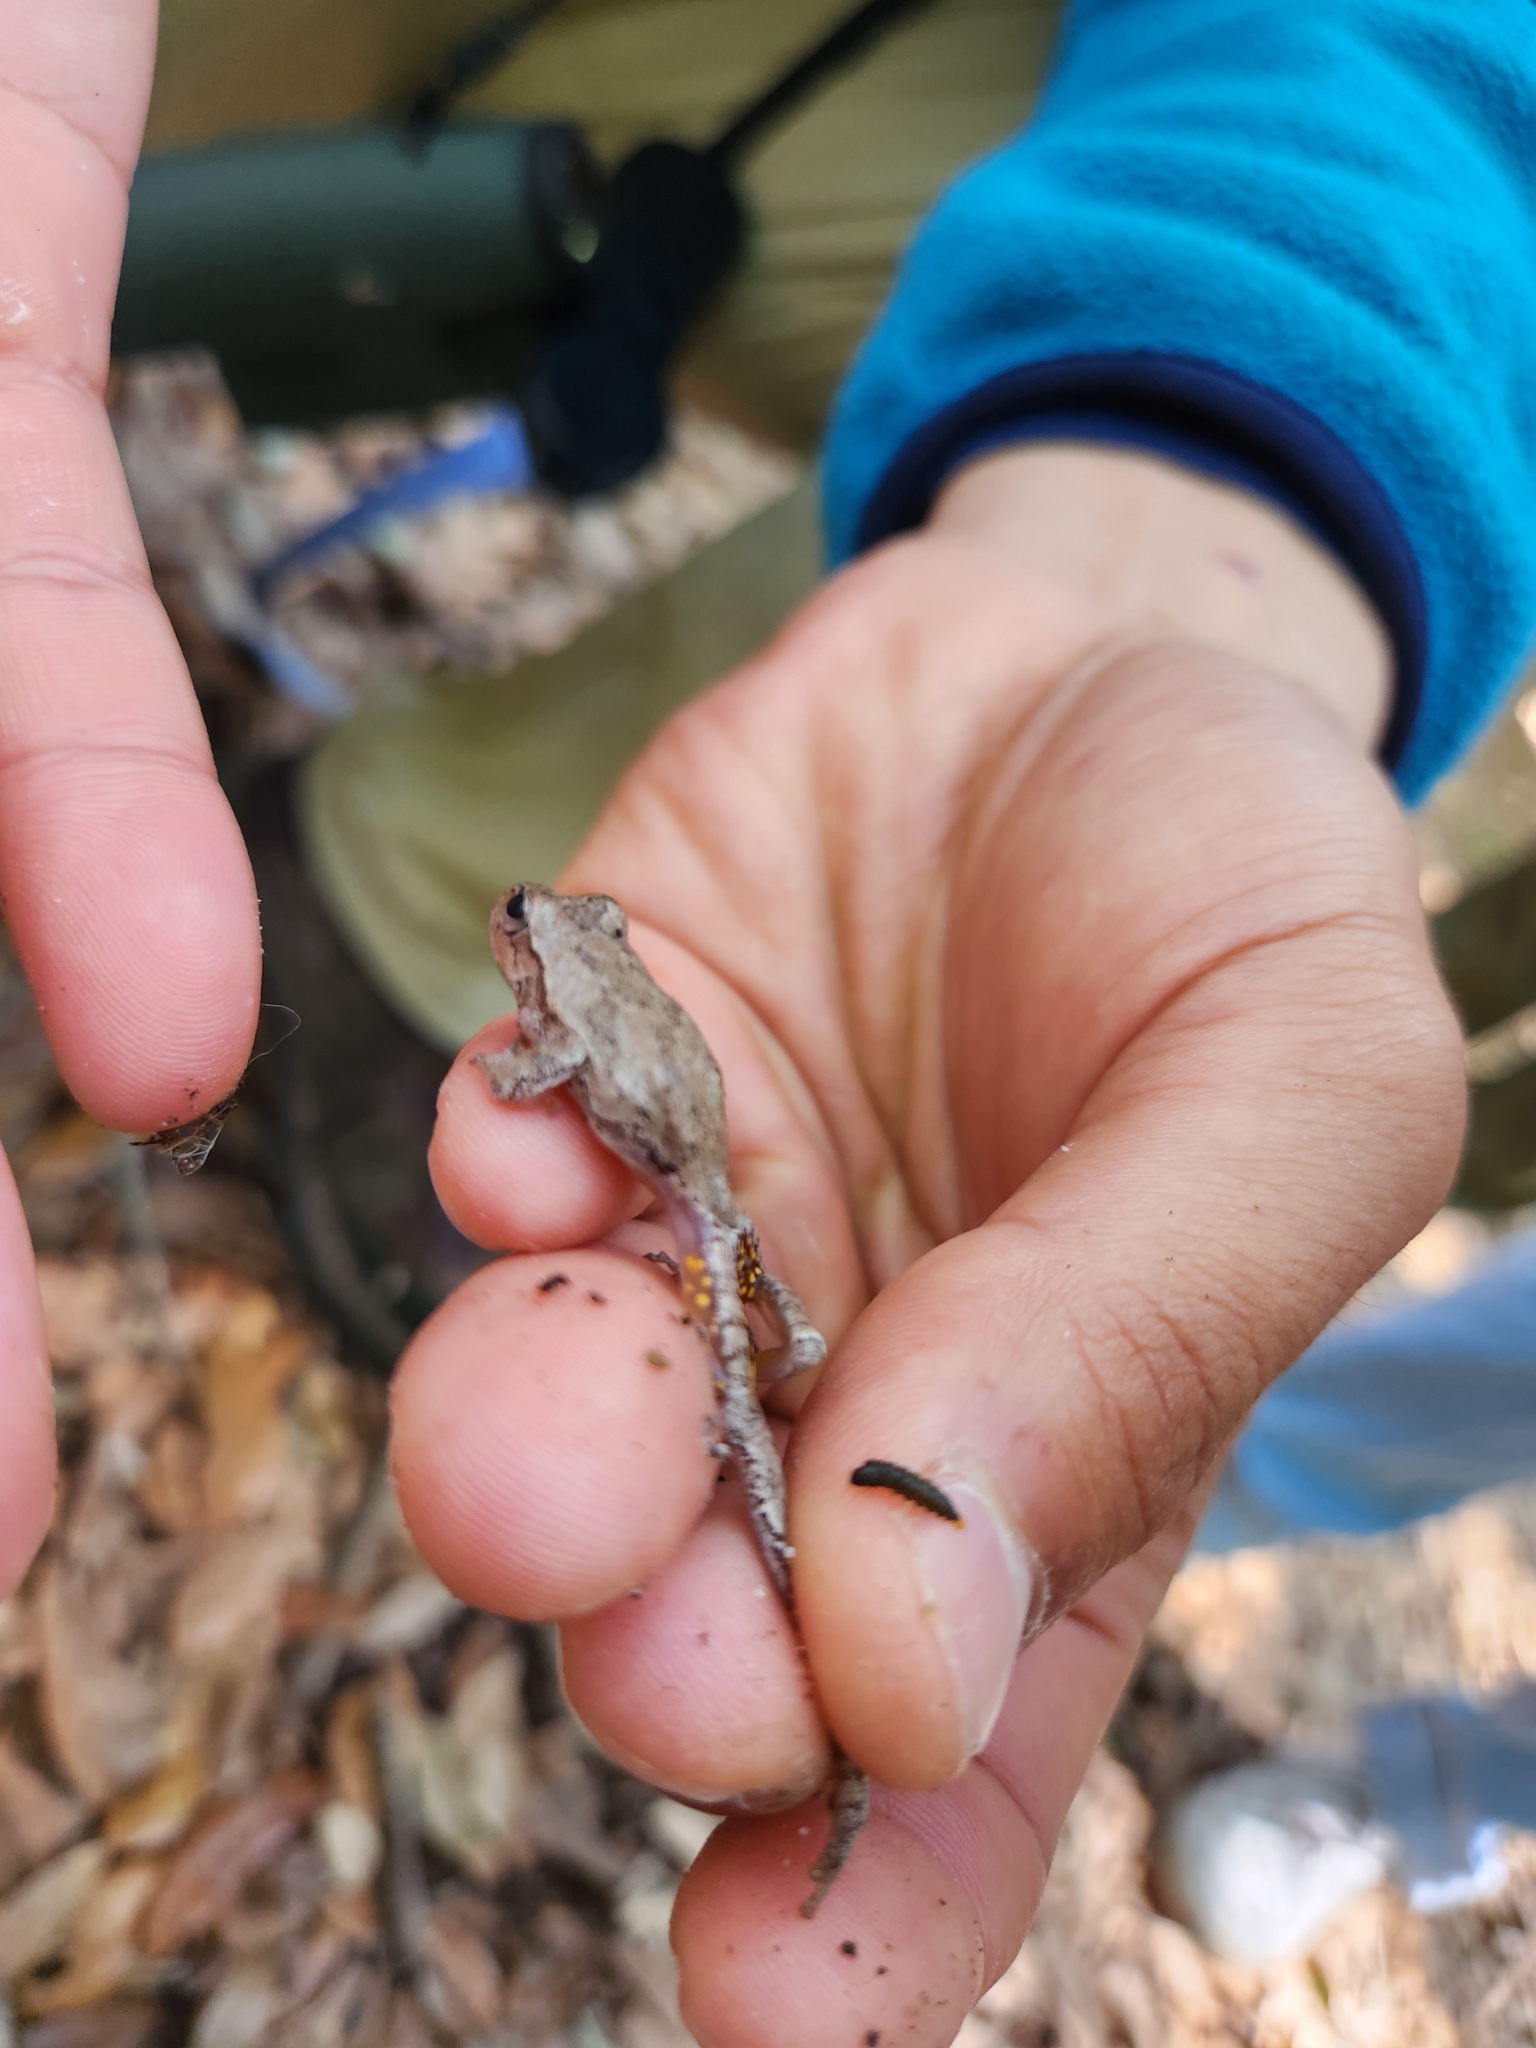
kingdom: Animalia
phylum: Chordata
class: Amphibia
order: Anura
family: Hylidae
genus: Hyla
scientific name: Hyla femoralis
